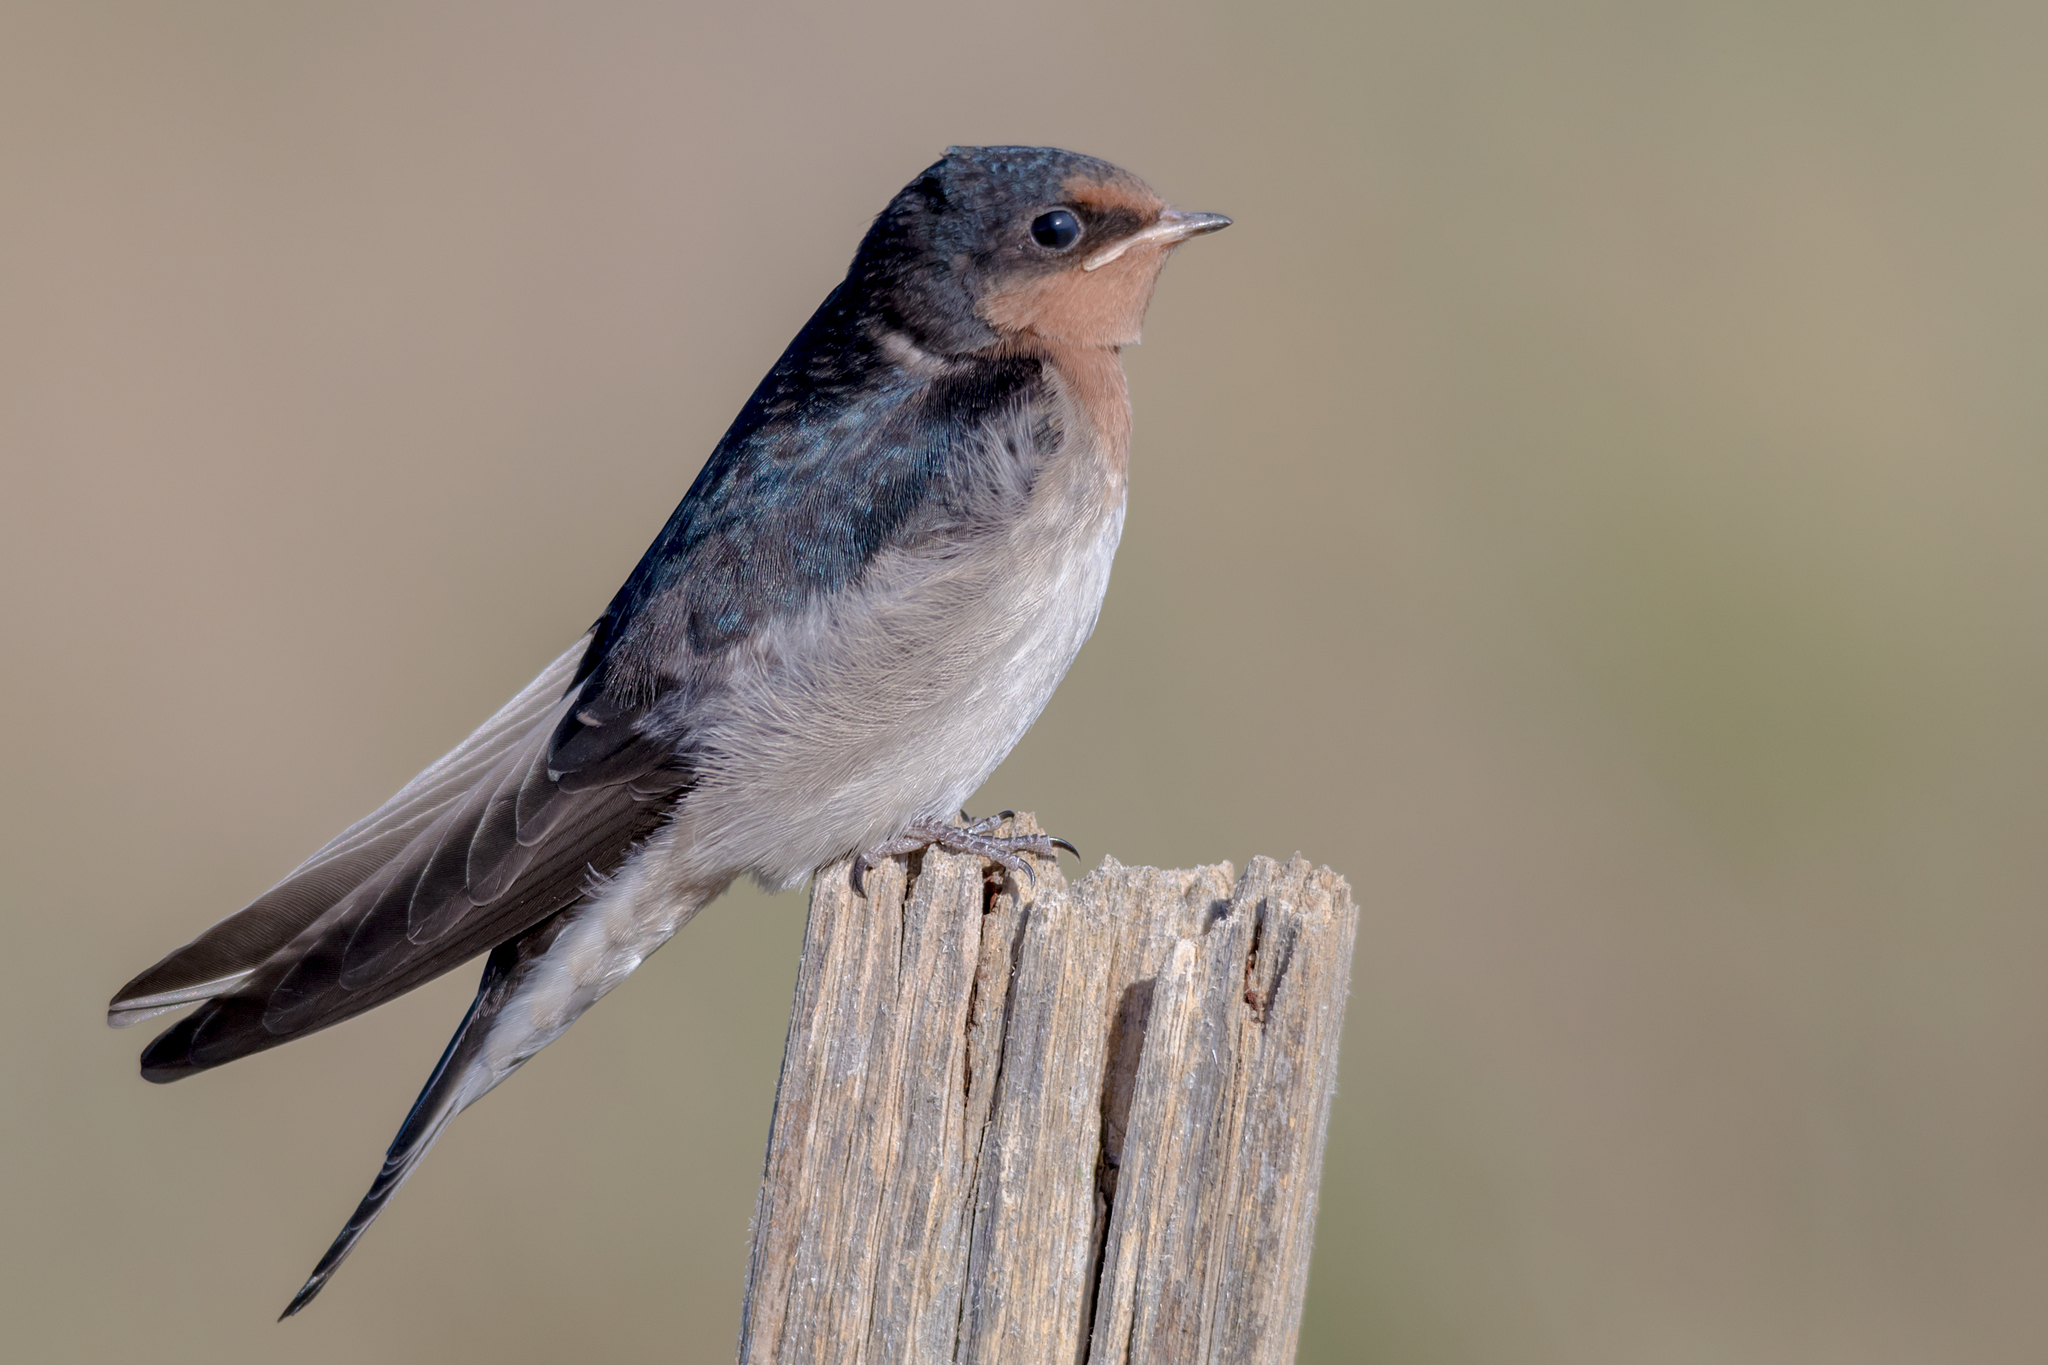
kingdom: Animalia
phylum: Chordata
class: Aves
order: Passeriformes
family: Hirundinidae
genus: Hirundo
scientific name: Hirundo neoxena
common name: Welcome swallow
